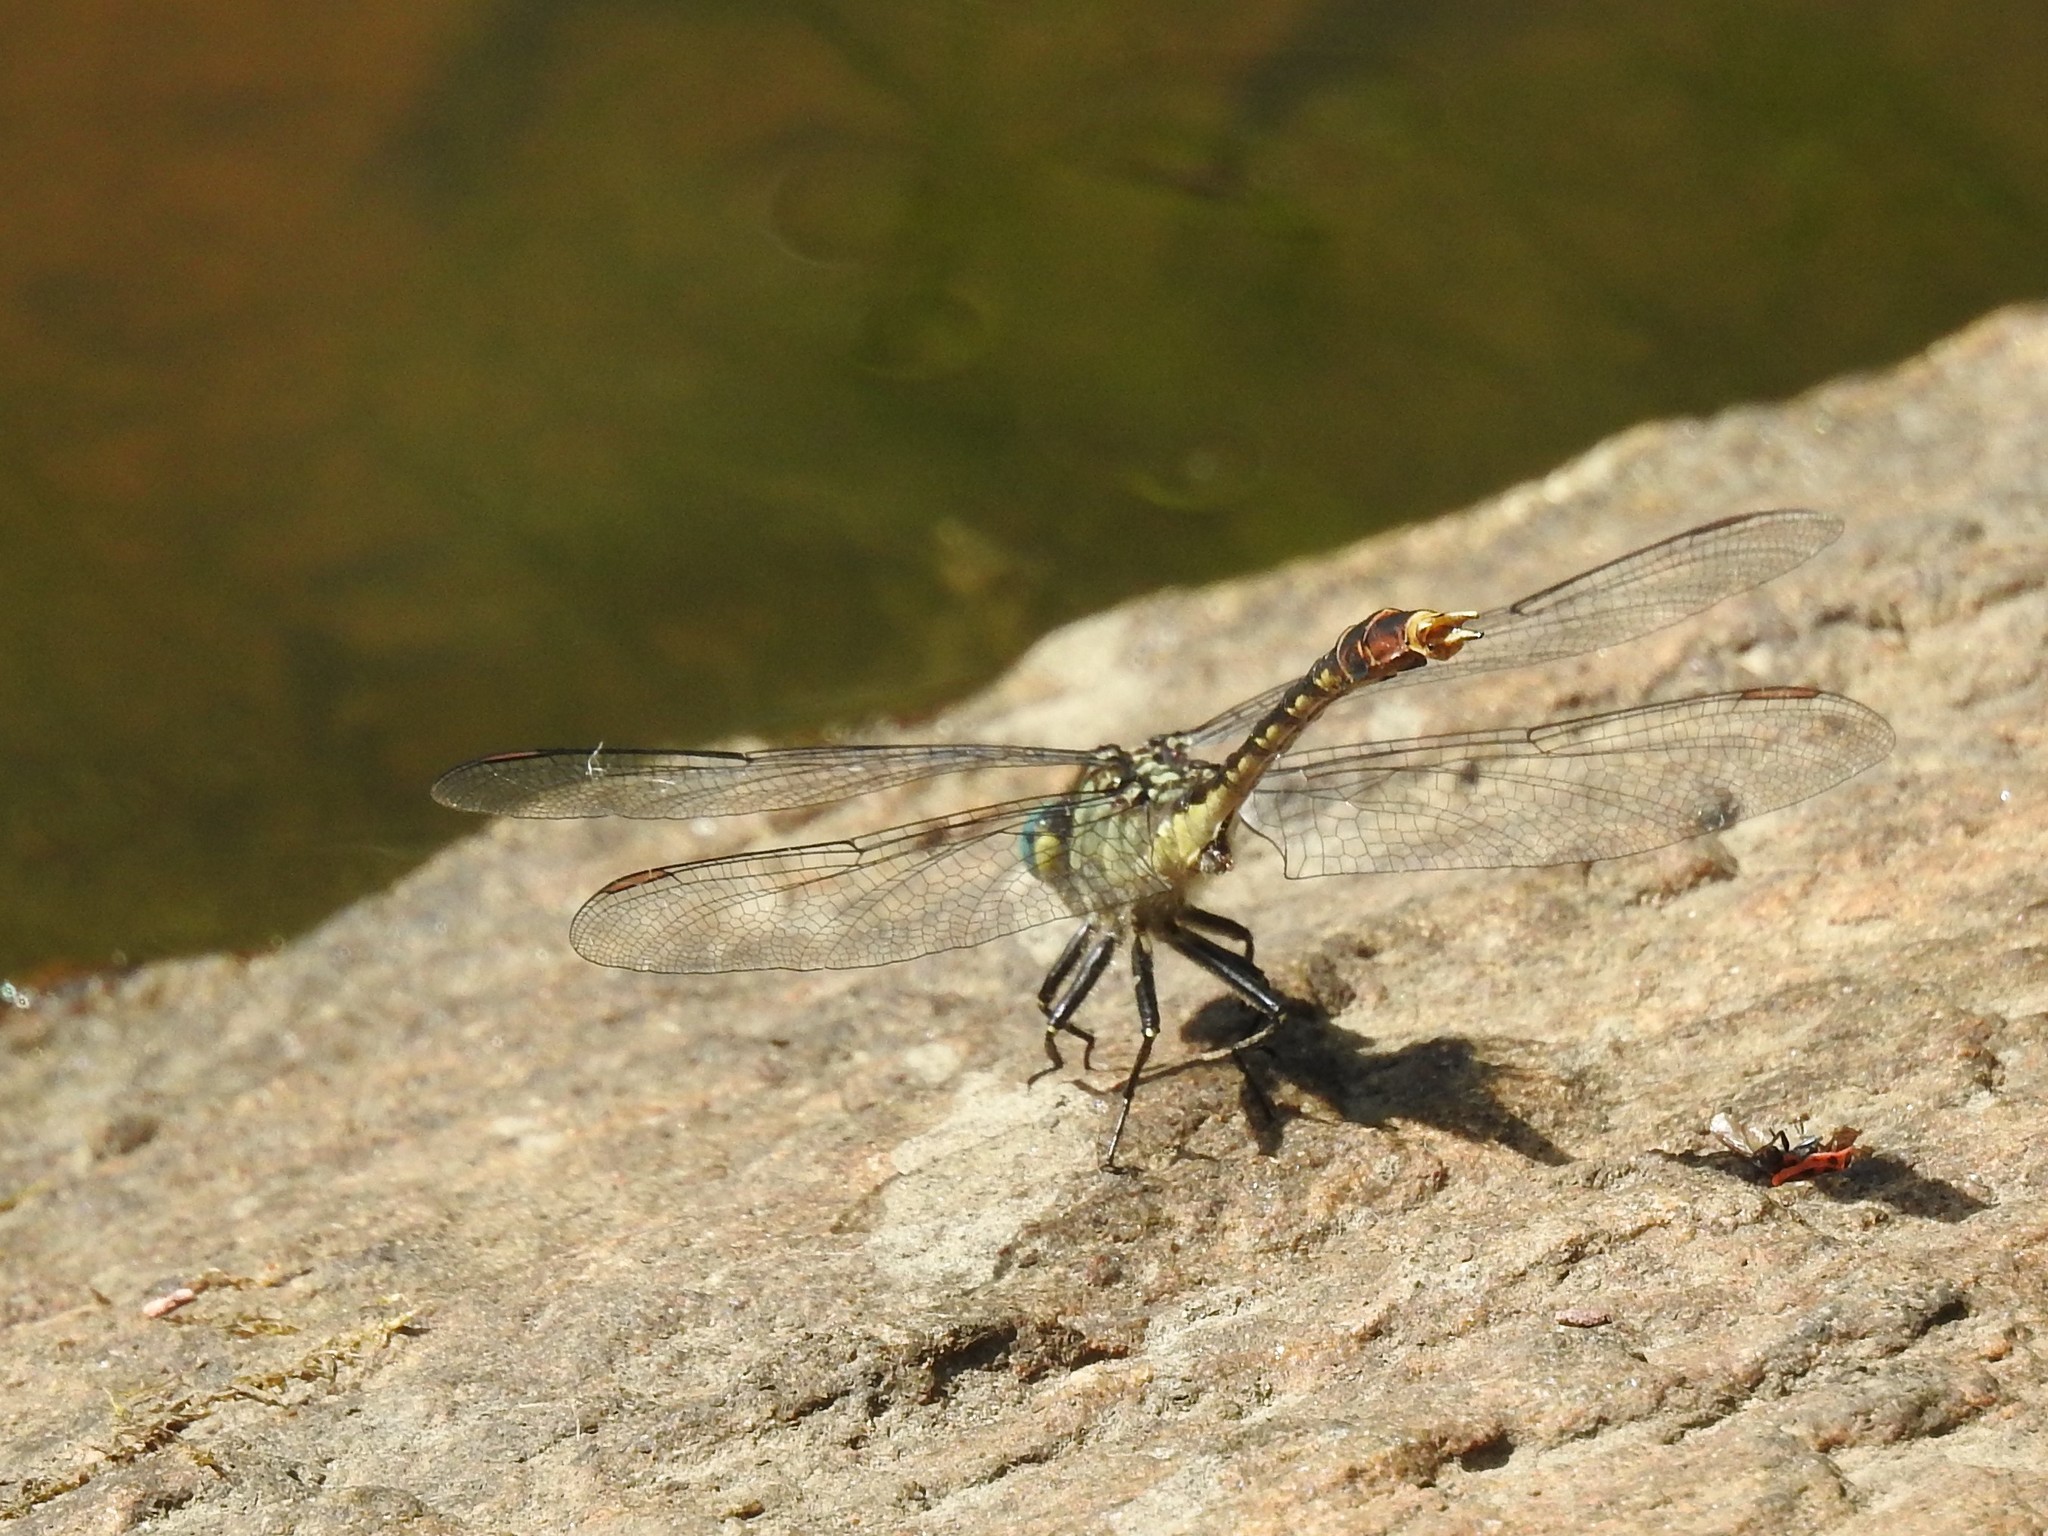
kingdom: Animalia
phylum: Arthropoda
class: Insecta
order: Odonata
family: Gomphidae
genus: Arigomphus
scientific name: Arigomphus villosipes
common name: Unicorn clubtail
